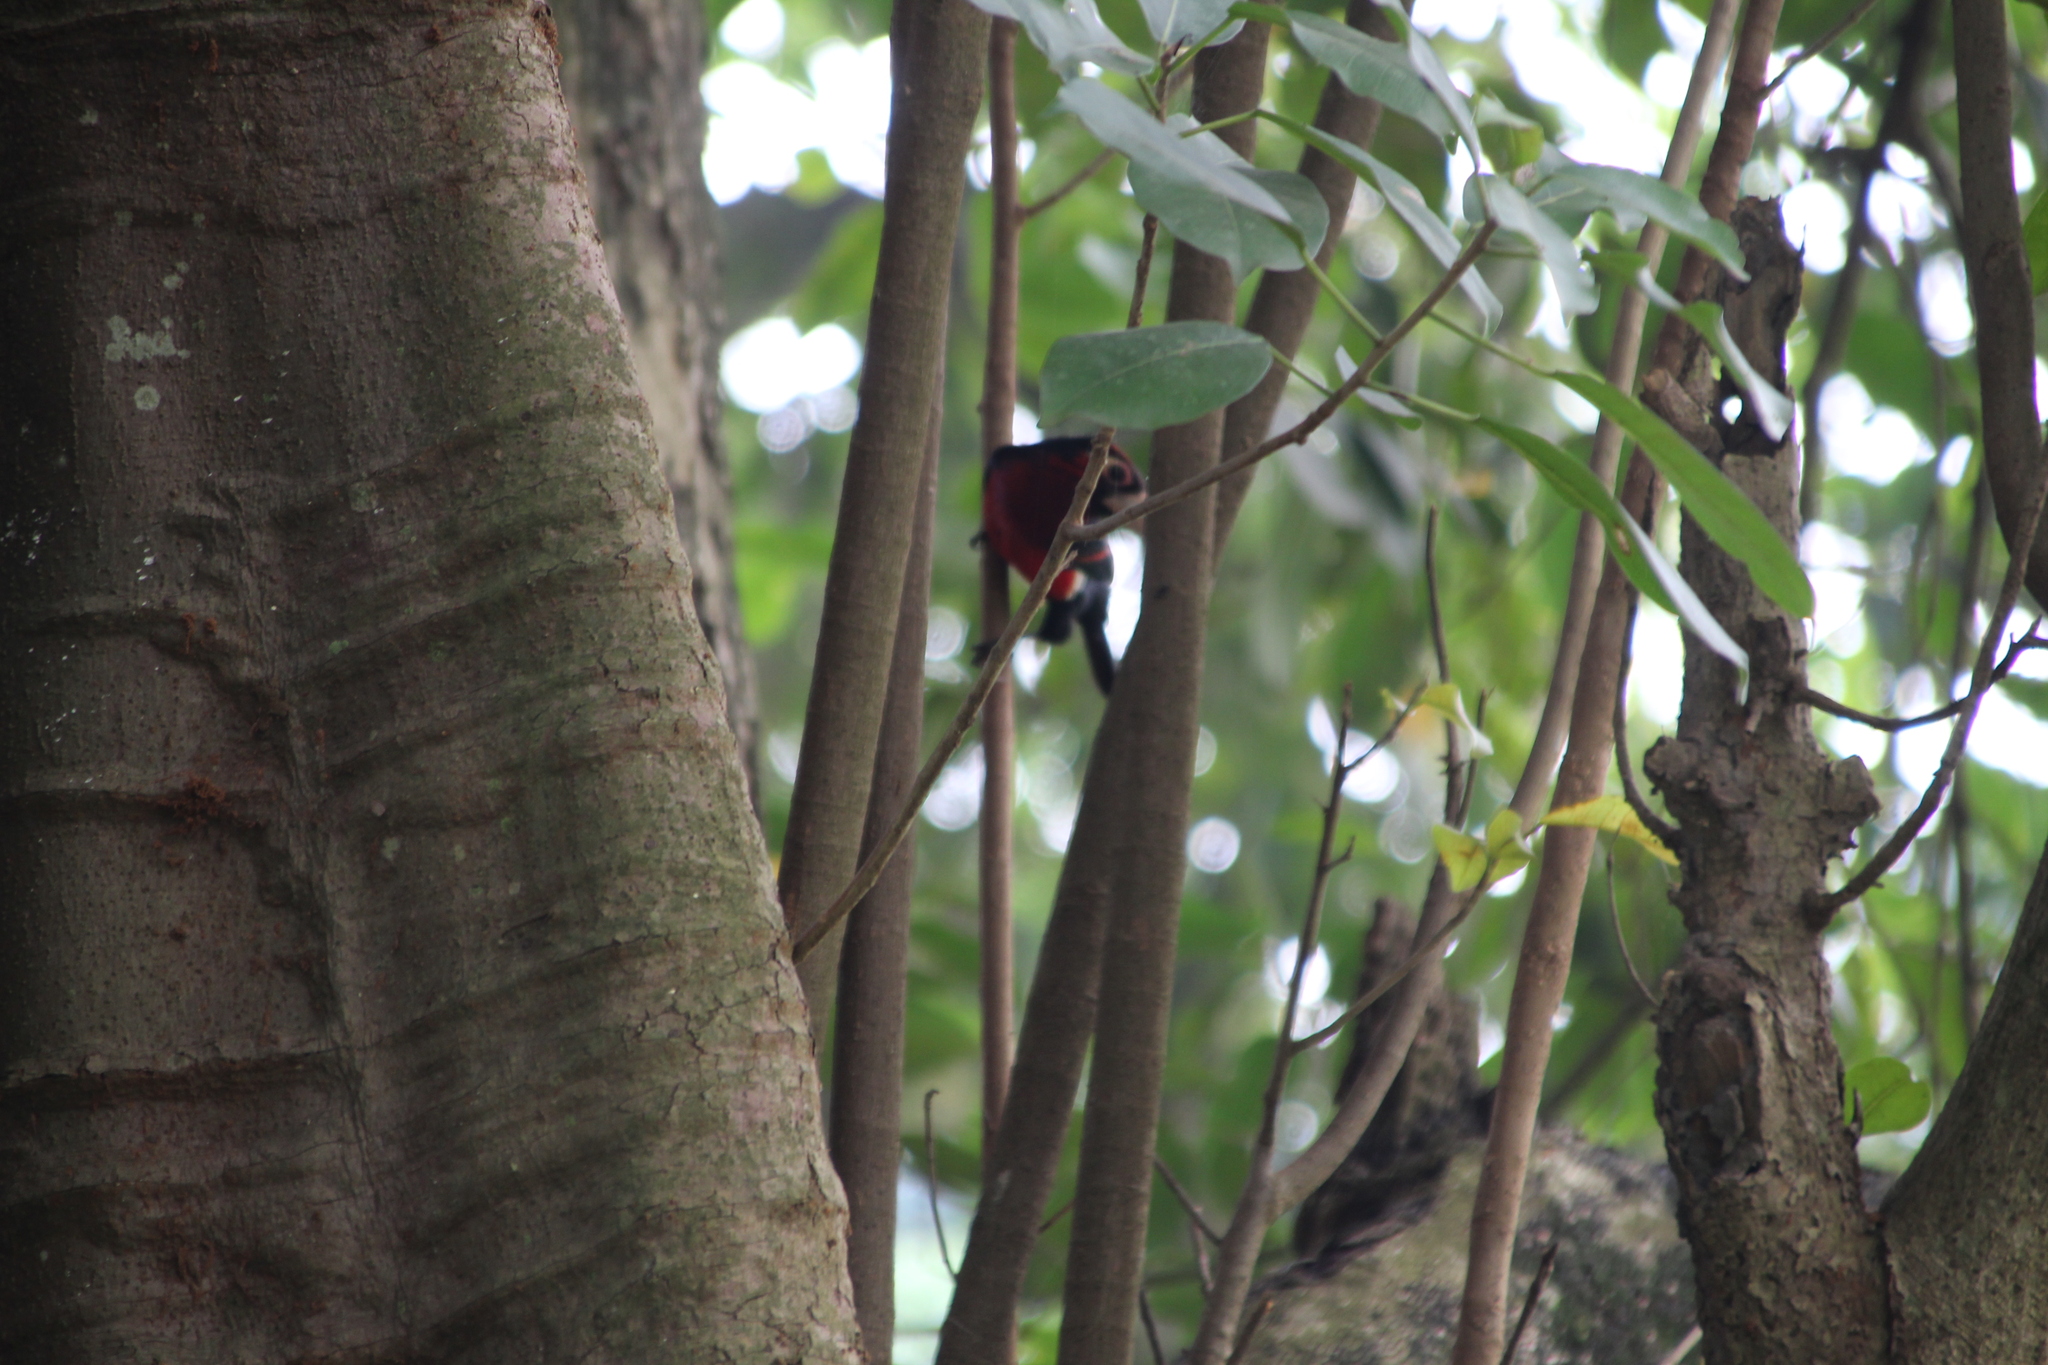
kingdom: Animalia
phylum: Chordata
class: Aves
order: Piciformes
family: Lybiidae
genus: Lybius
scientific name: Lybius bidentatus
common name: Double-toothed barbet
